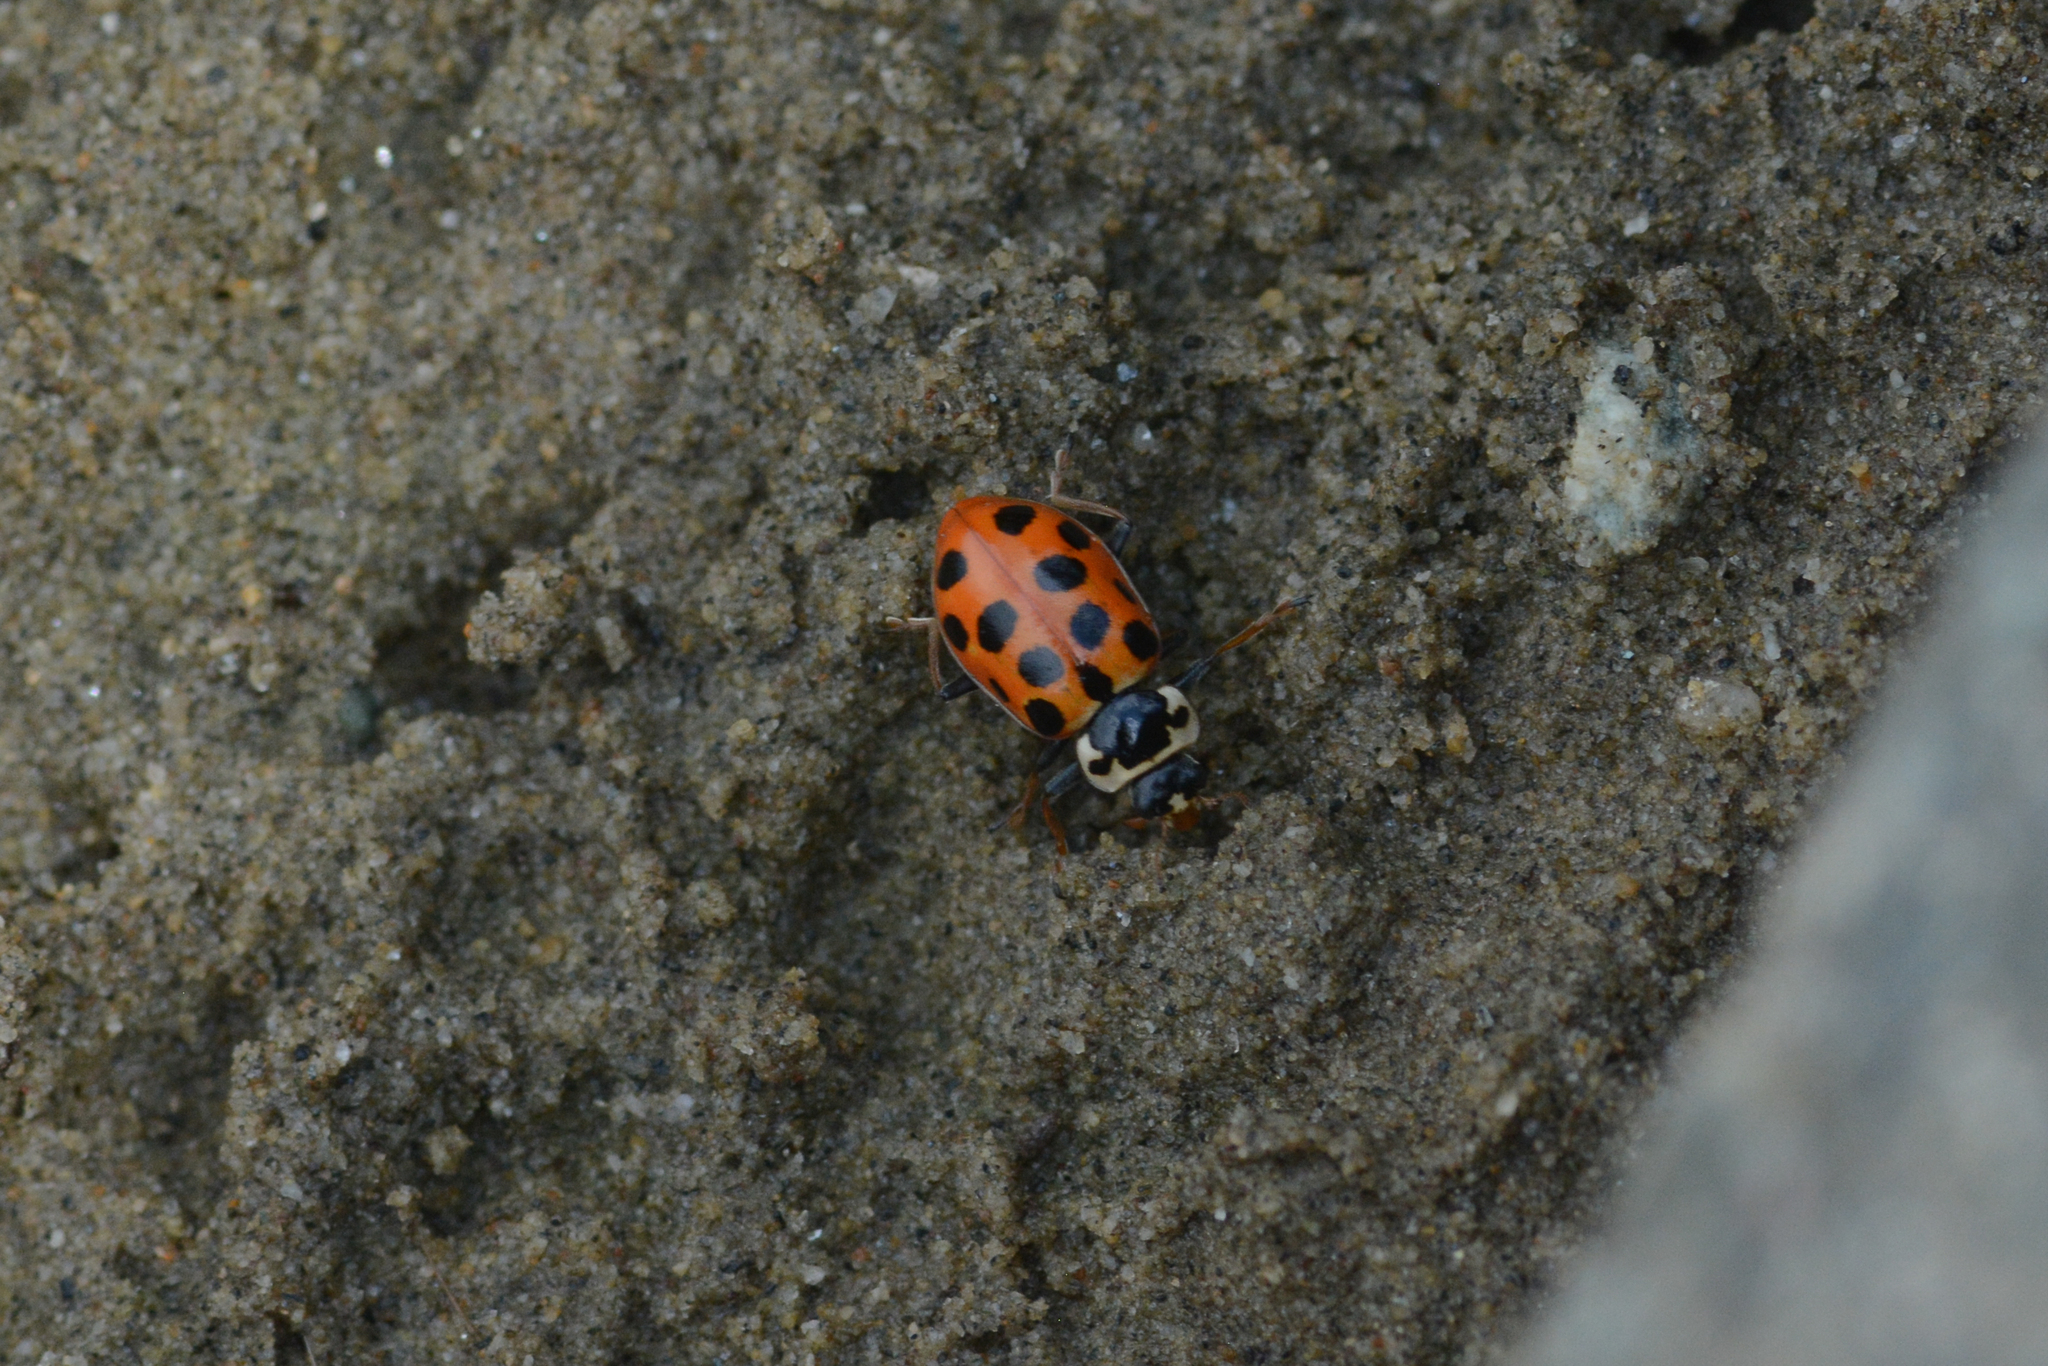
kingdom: Animalia
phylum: Arthropoda
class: Insecta
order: Coleoptera
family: Coccinellidae
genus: Hippodamia
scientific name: Hippodamia tredecimpunctata
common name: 13-spot ladybird
